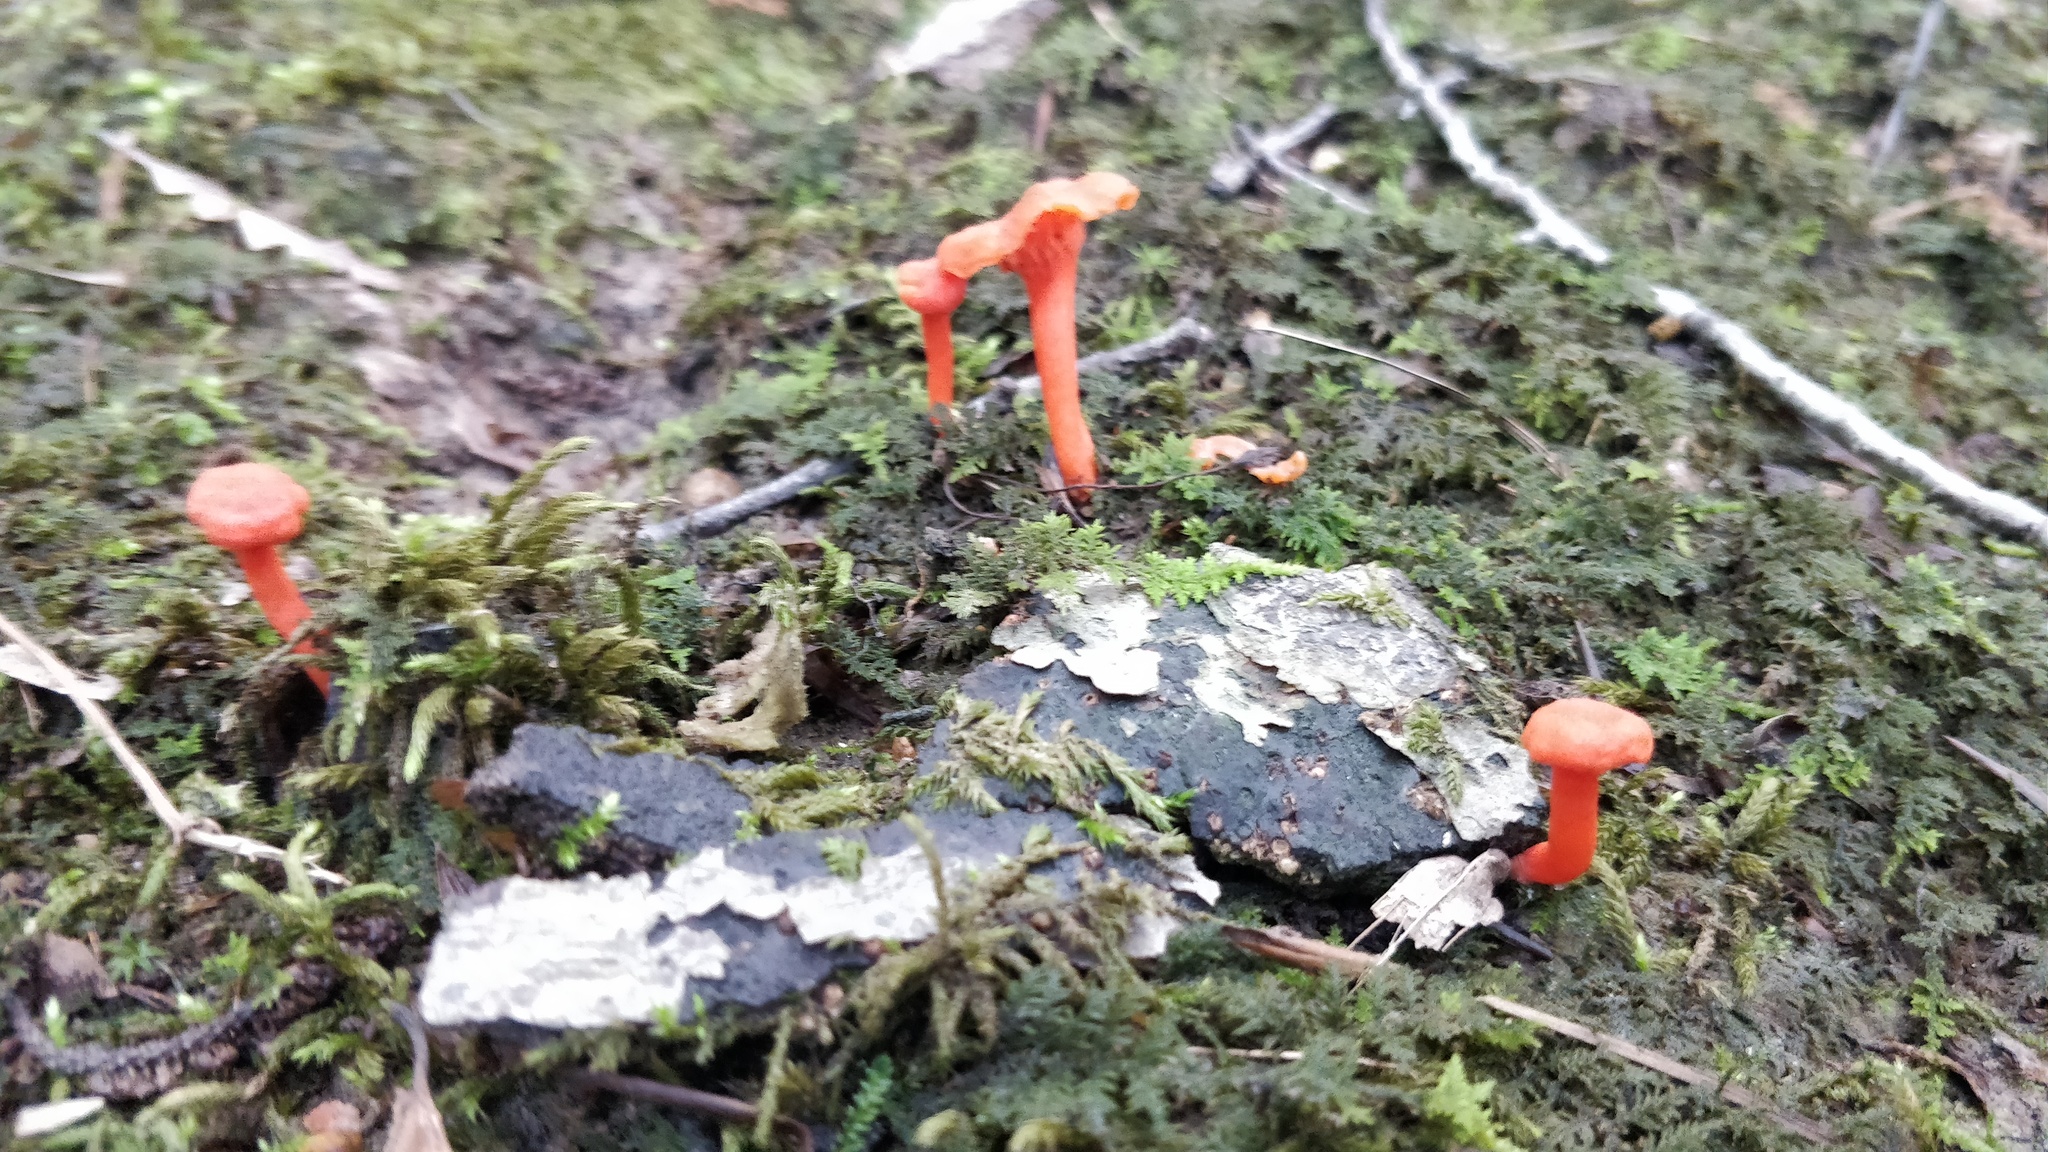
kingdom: Fungi
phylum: Basidiomycota
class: Agaricomycetes
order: Cantharellales
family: Hydnaceae
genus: Cantharellus
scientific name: Cantharellus cinnabarinus
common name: Cinnabar chanterelle
